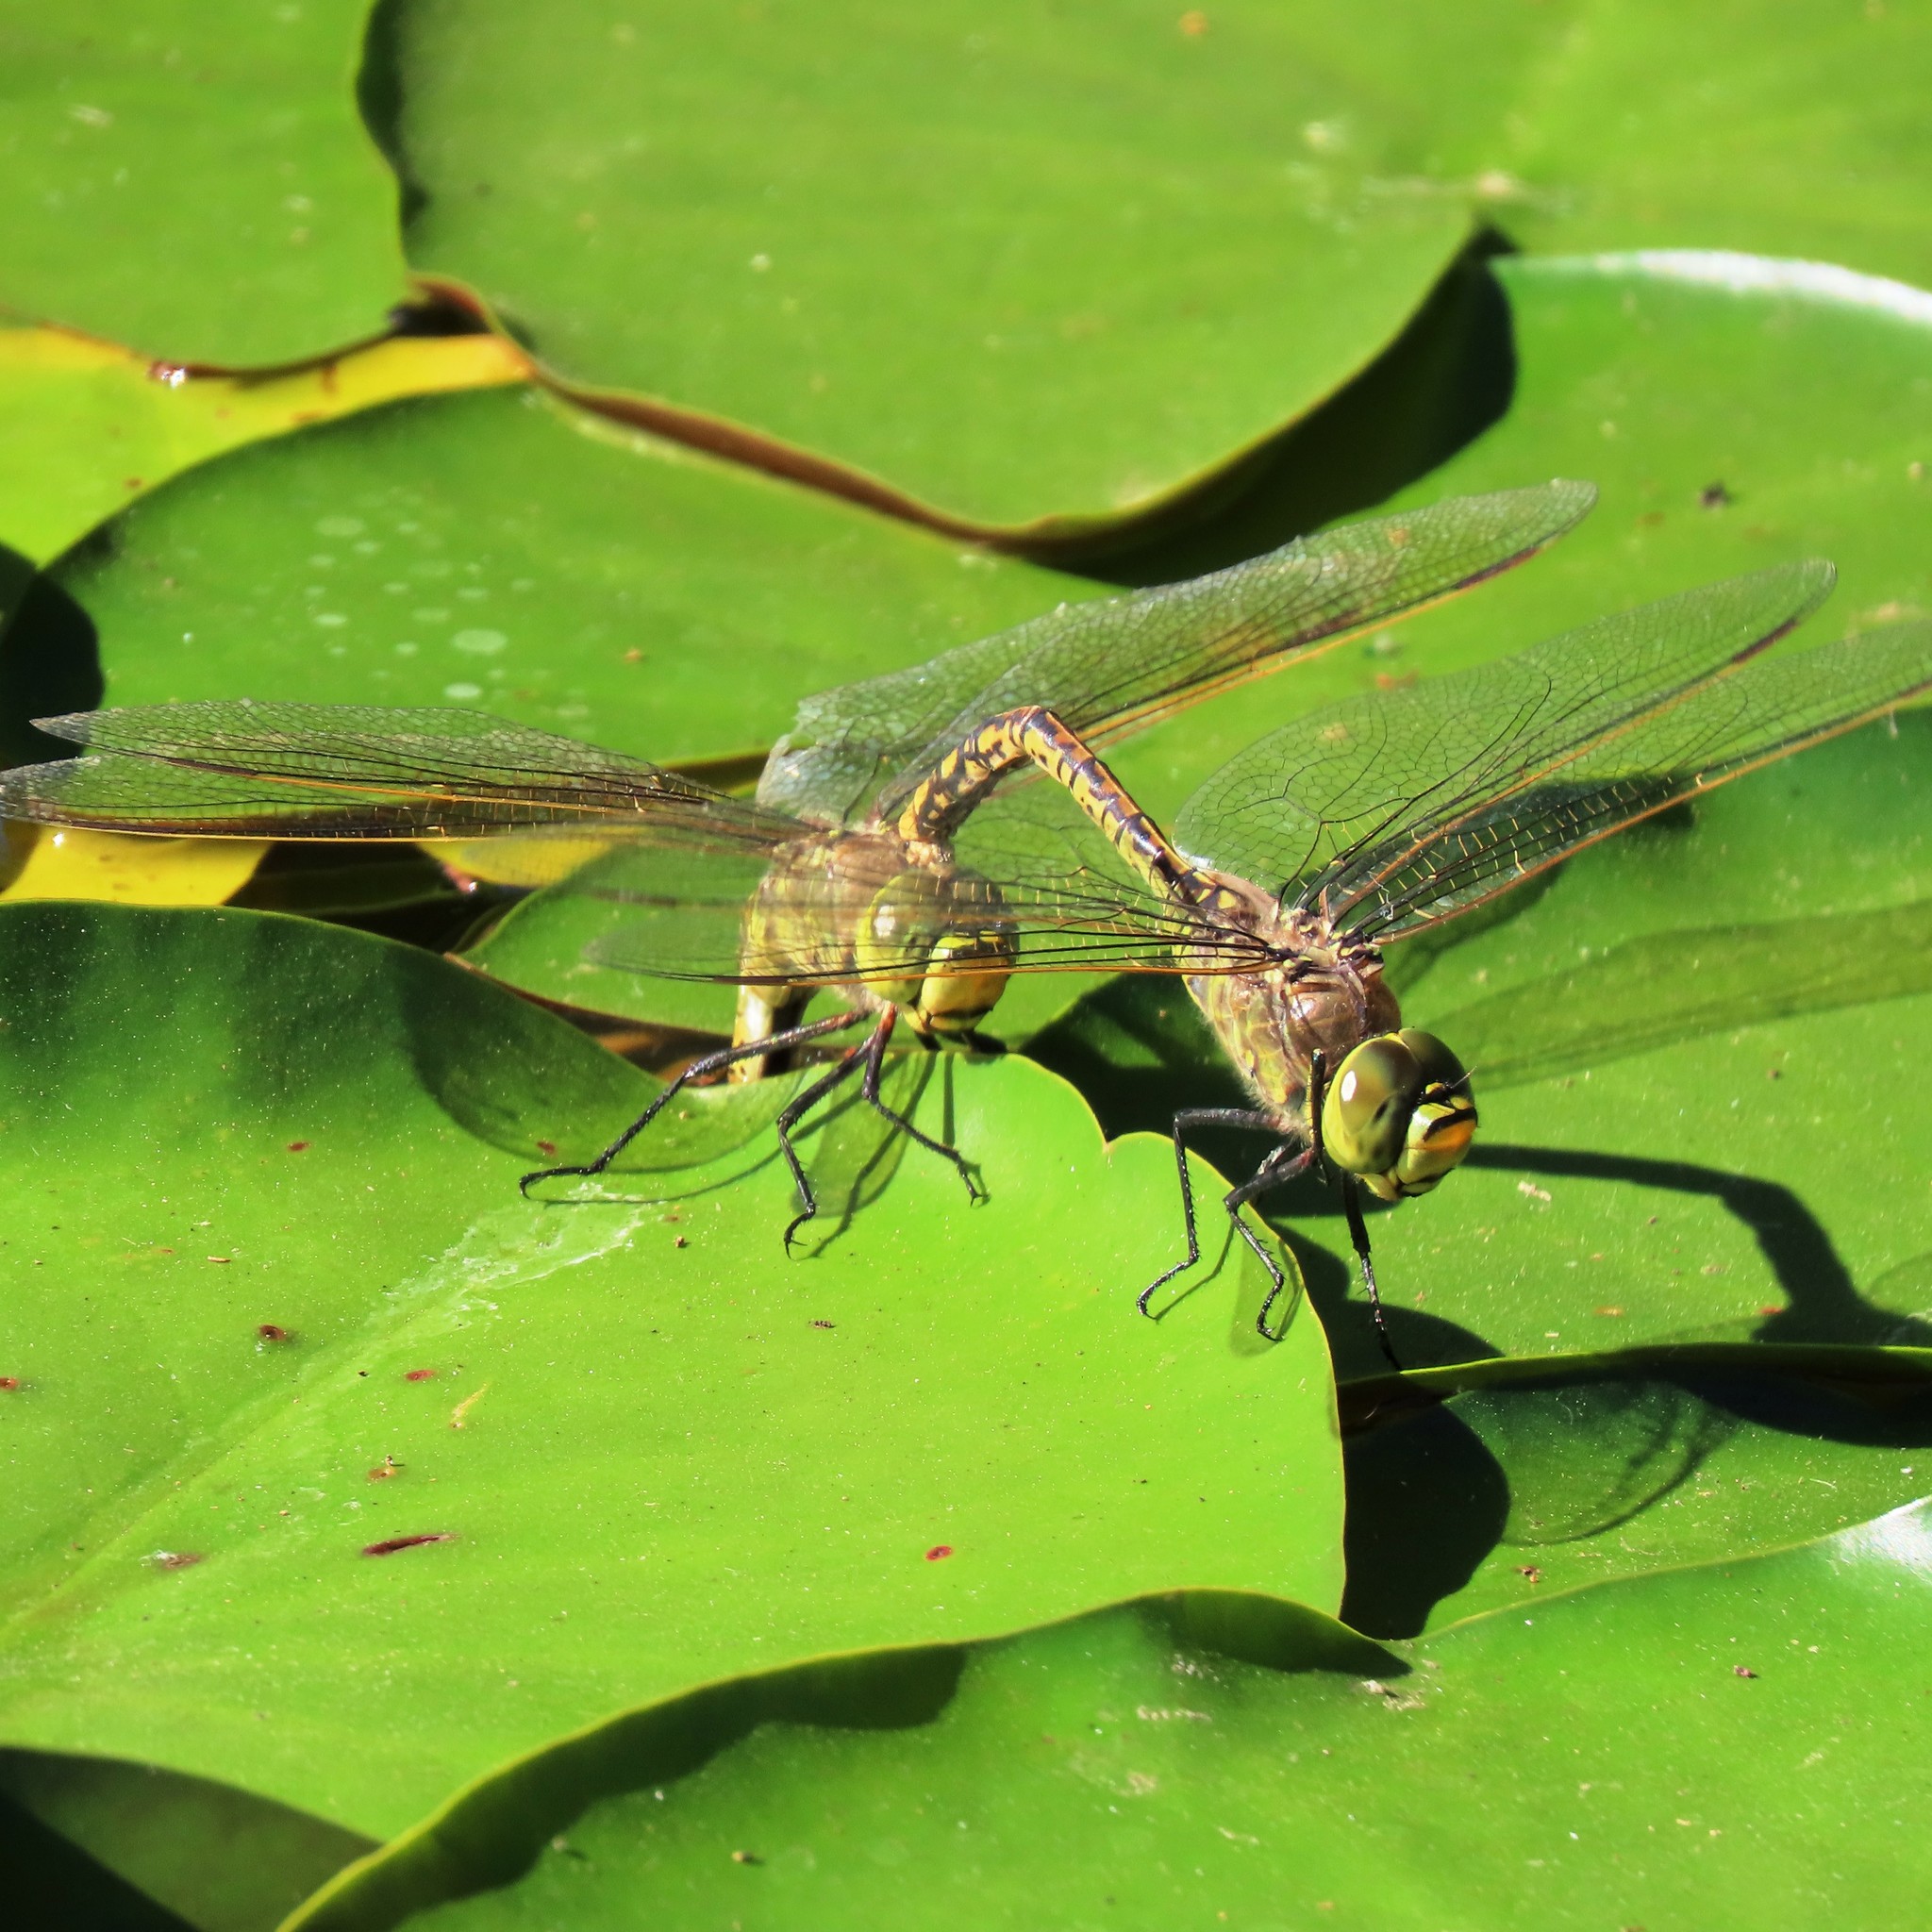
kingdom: Animalia
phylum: Arthropoda
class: Insecta
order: Odonata
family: Aeshnidae
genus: Anax
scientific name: Anax papuensis
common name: Australian emperor
